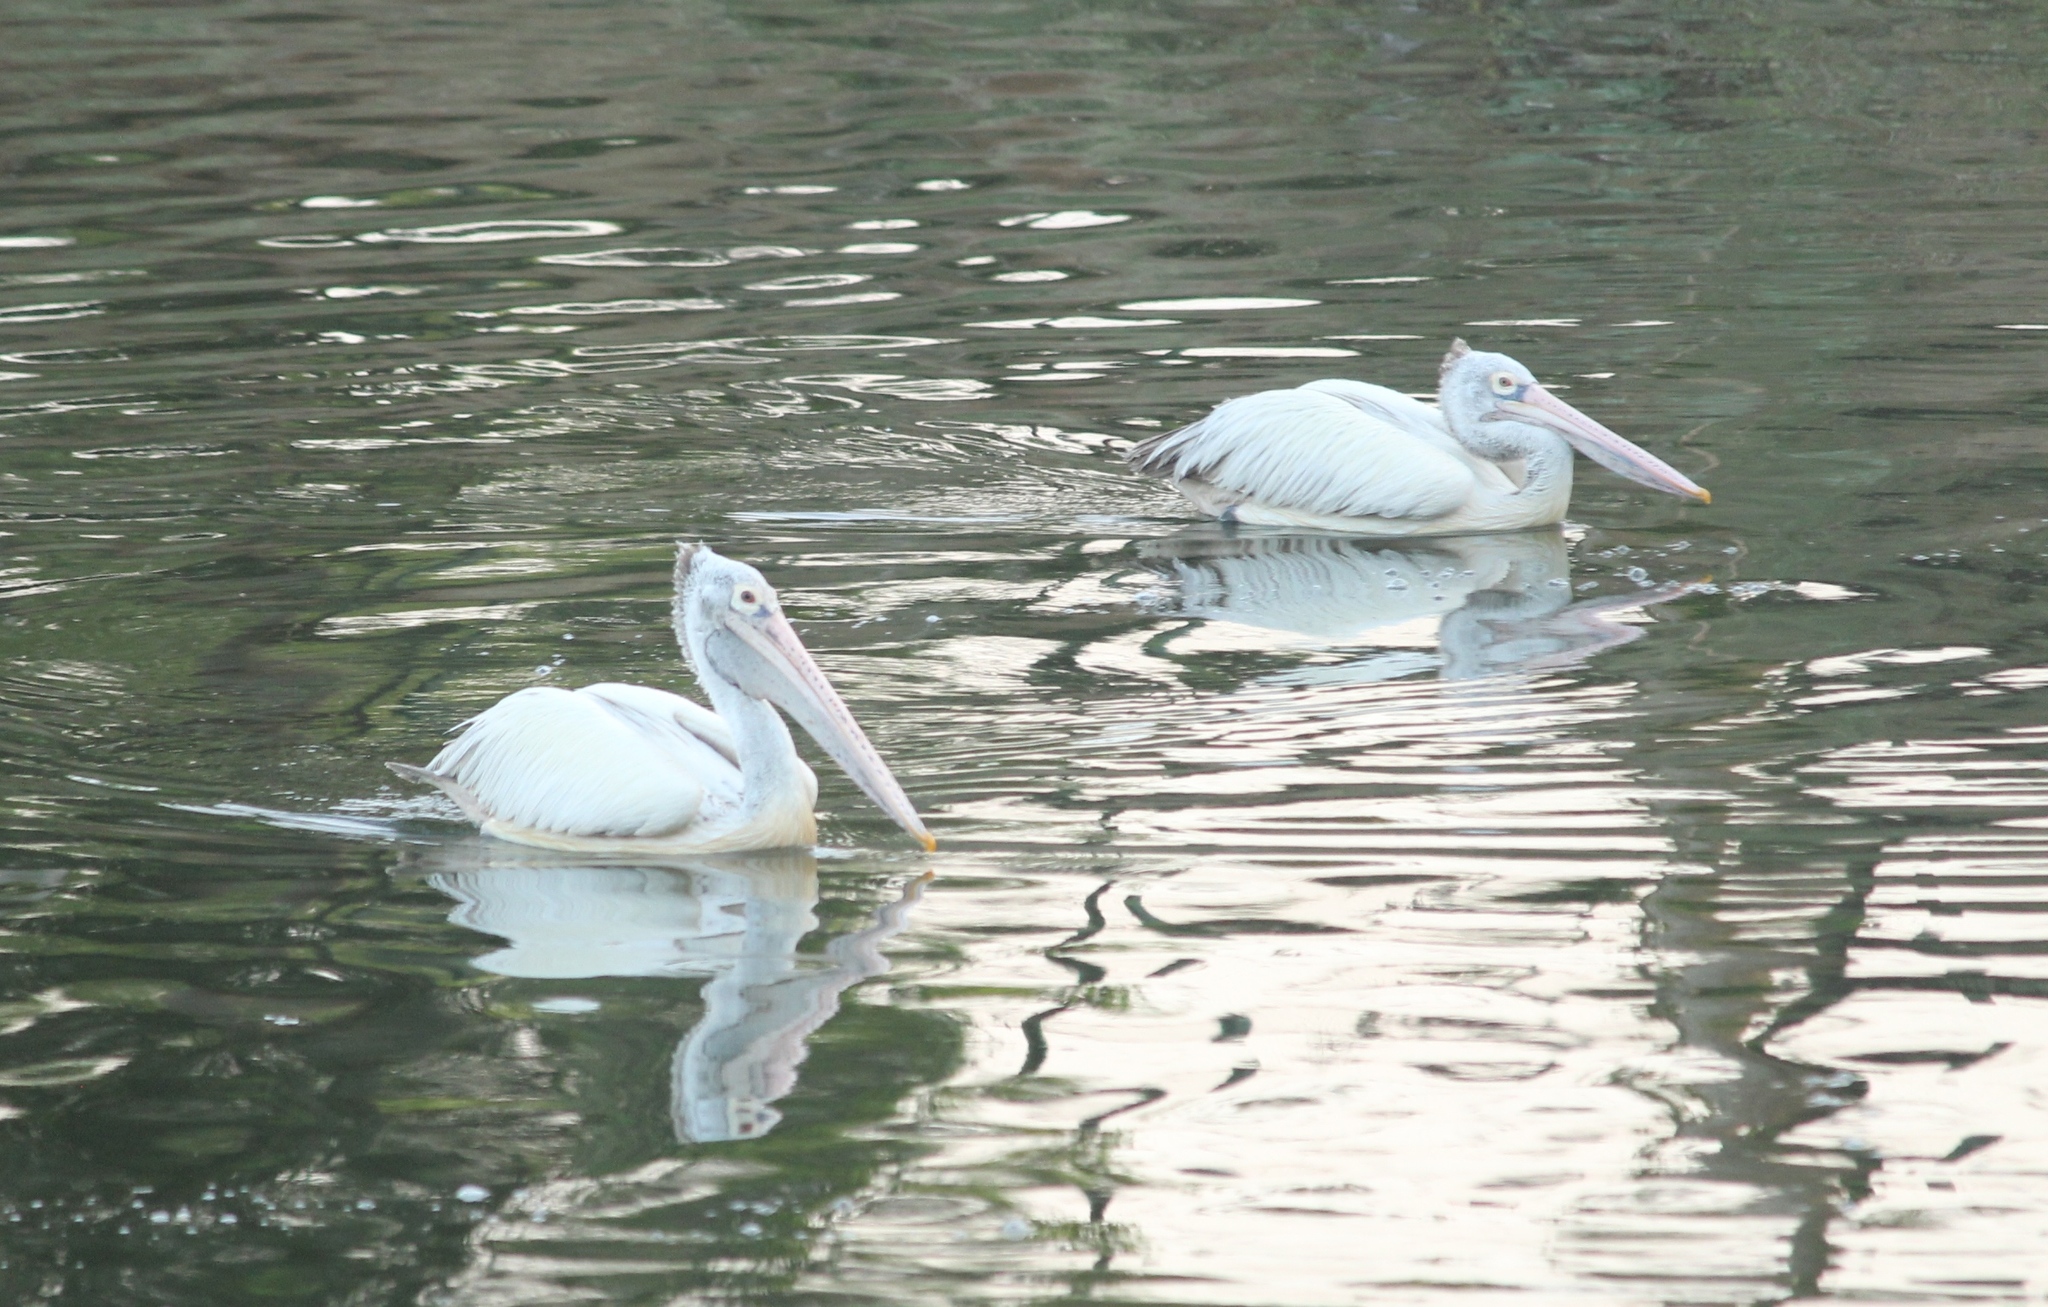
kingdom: Animalia
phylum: Chordata
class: Aves
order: Pelecaniformes
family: Pelecanidae
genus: Pelecanus
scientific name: Pelecanus philippensis
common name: Spot-billed pelican
